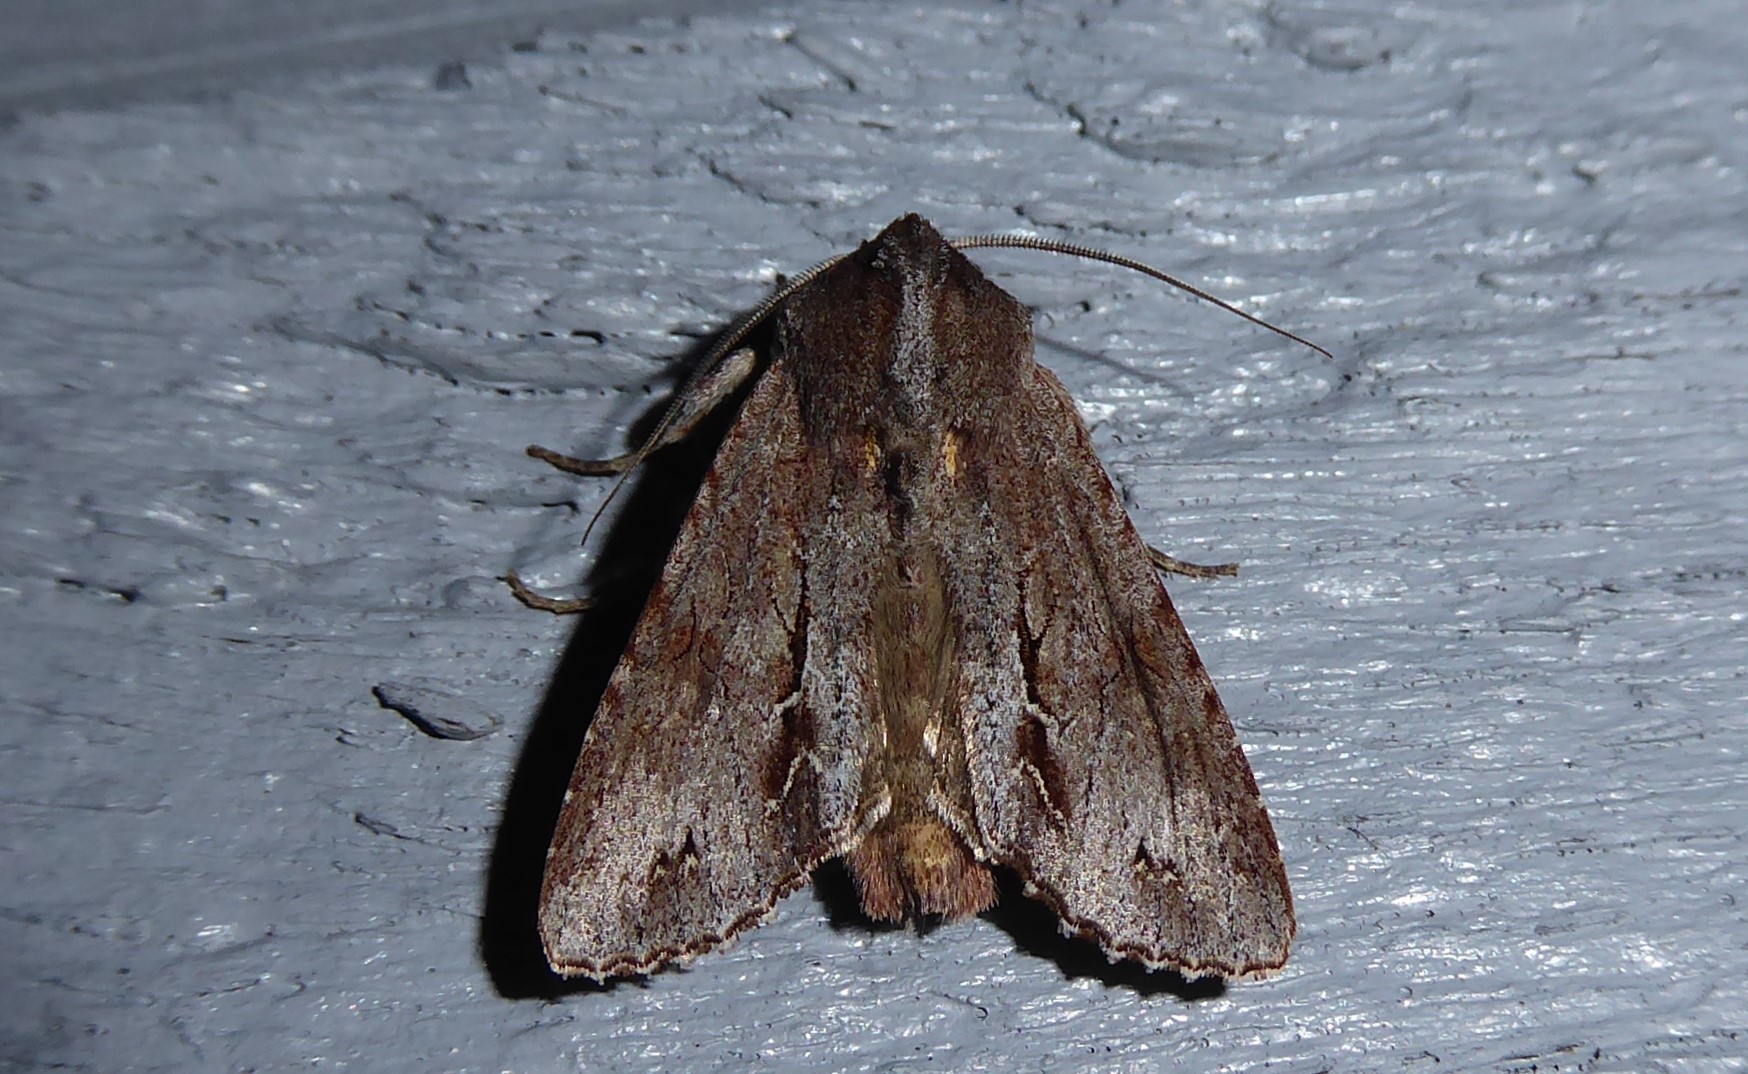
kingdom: Animalia
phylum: Arthropoda
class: Insecta
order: Lepidoptera
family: Noctuidae
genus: Ichneutica
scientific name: Ichneutica
